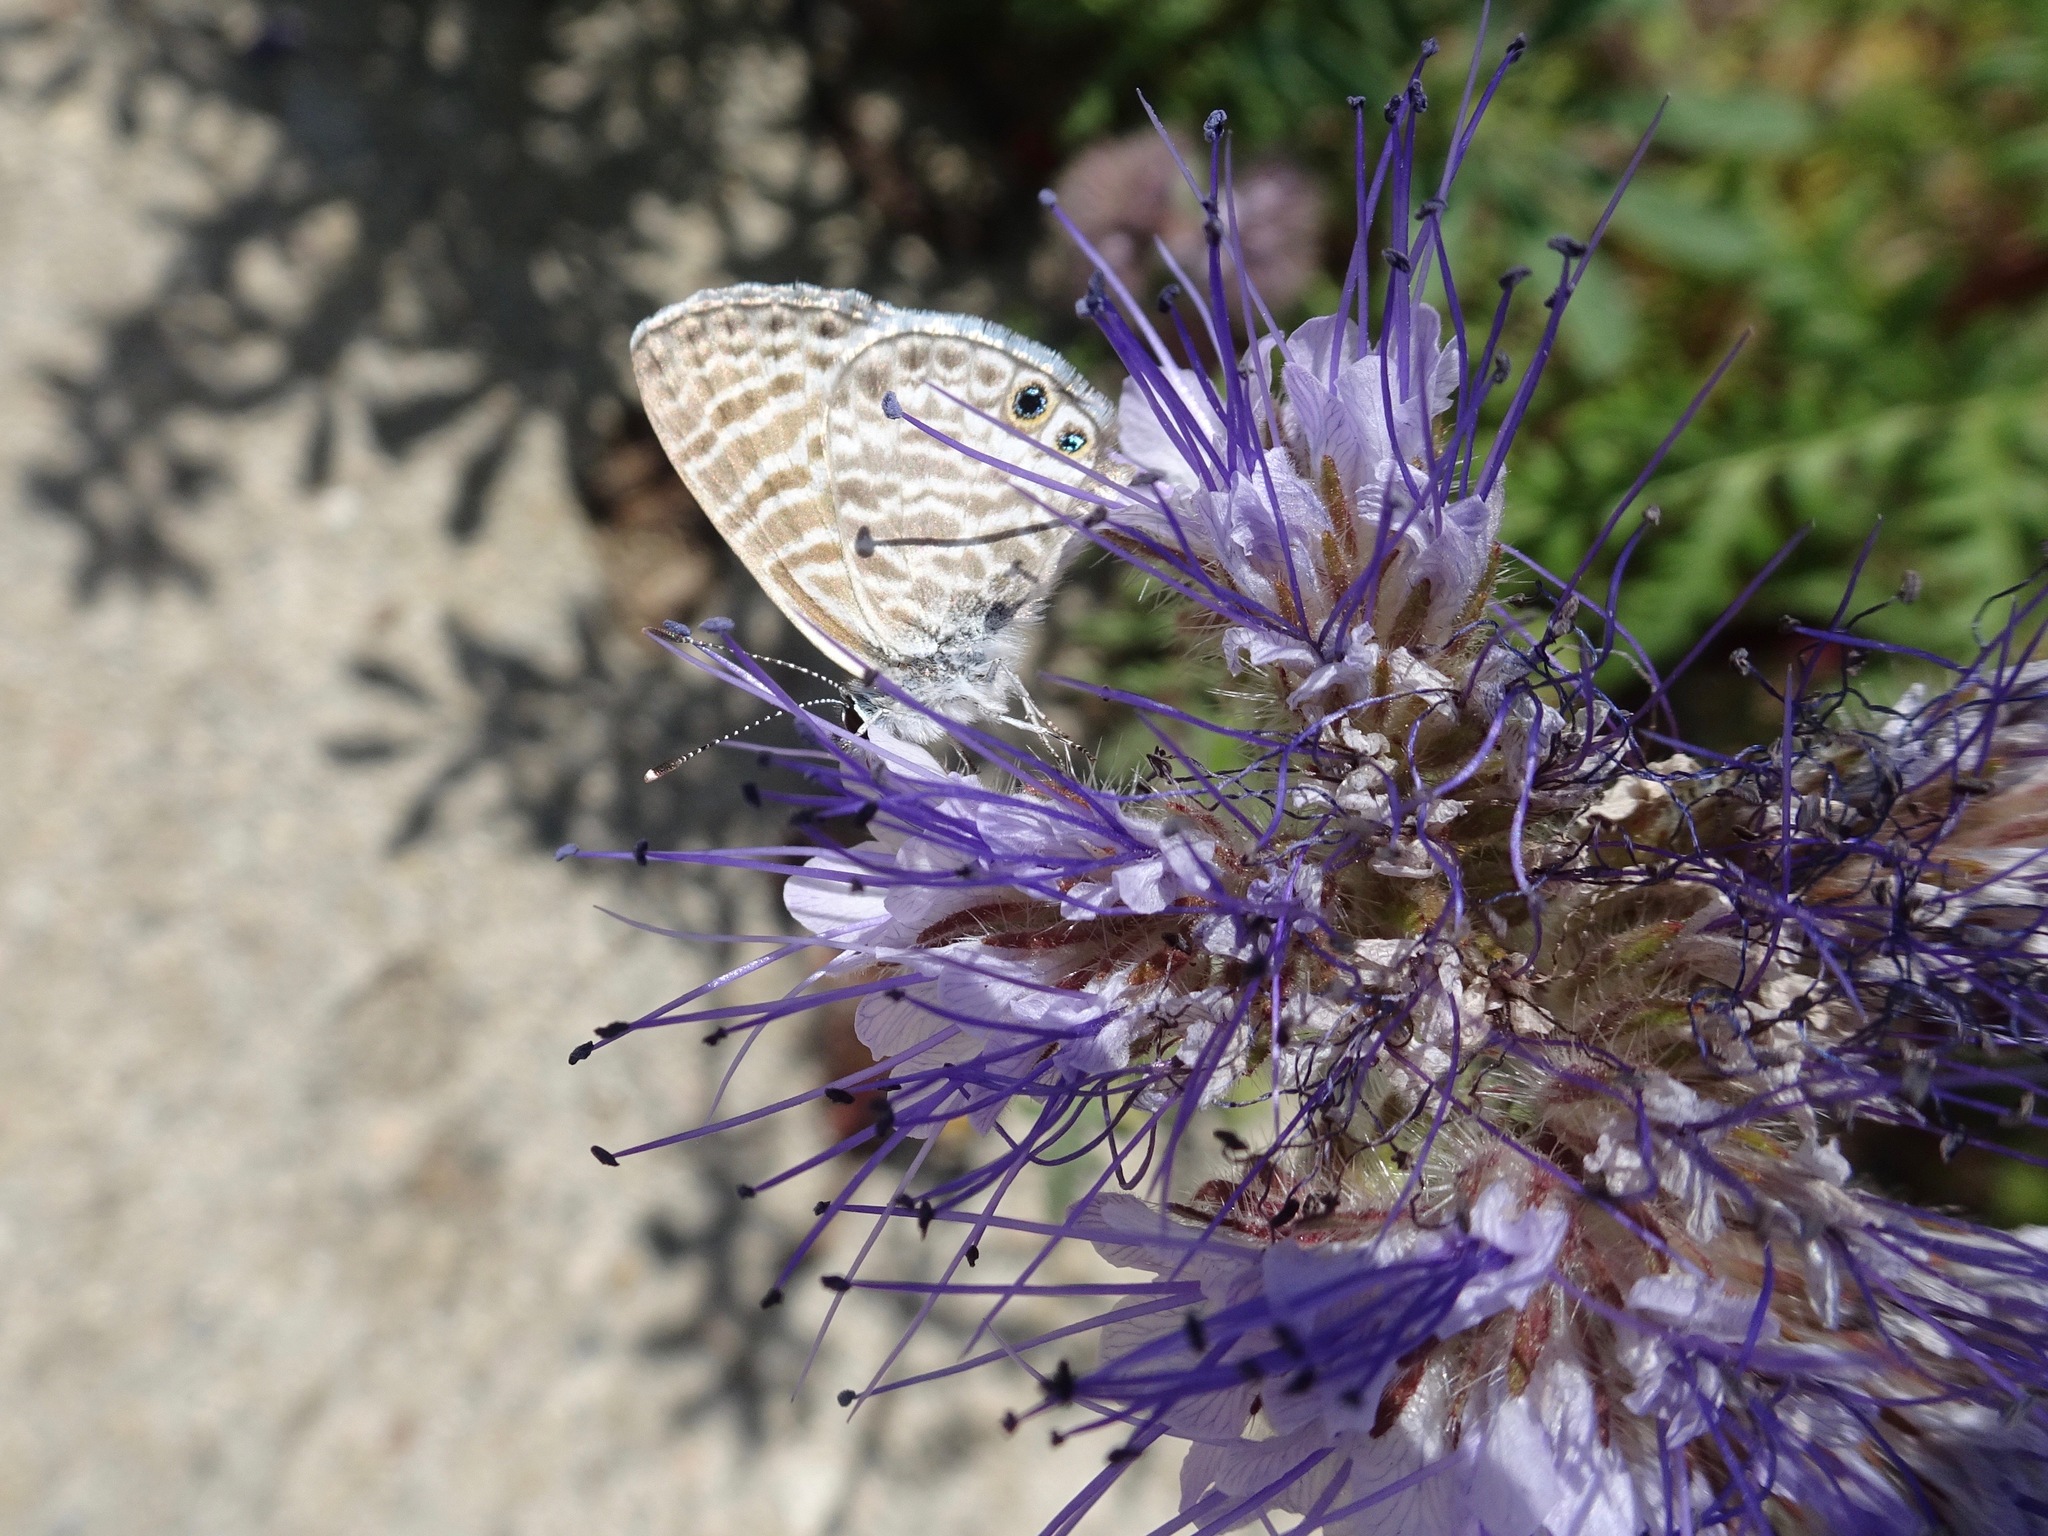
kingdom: Animalia
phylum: Arthropoda
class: Insecta
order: Lepidoptera
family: Lycaenidae
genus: Leptotes
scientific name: Leptotes marina
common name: Marine blue
